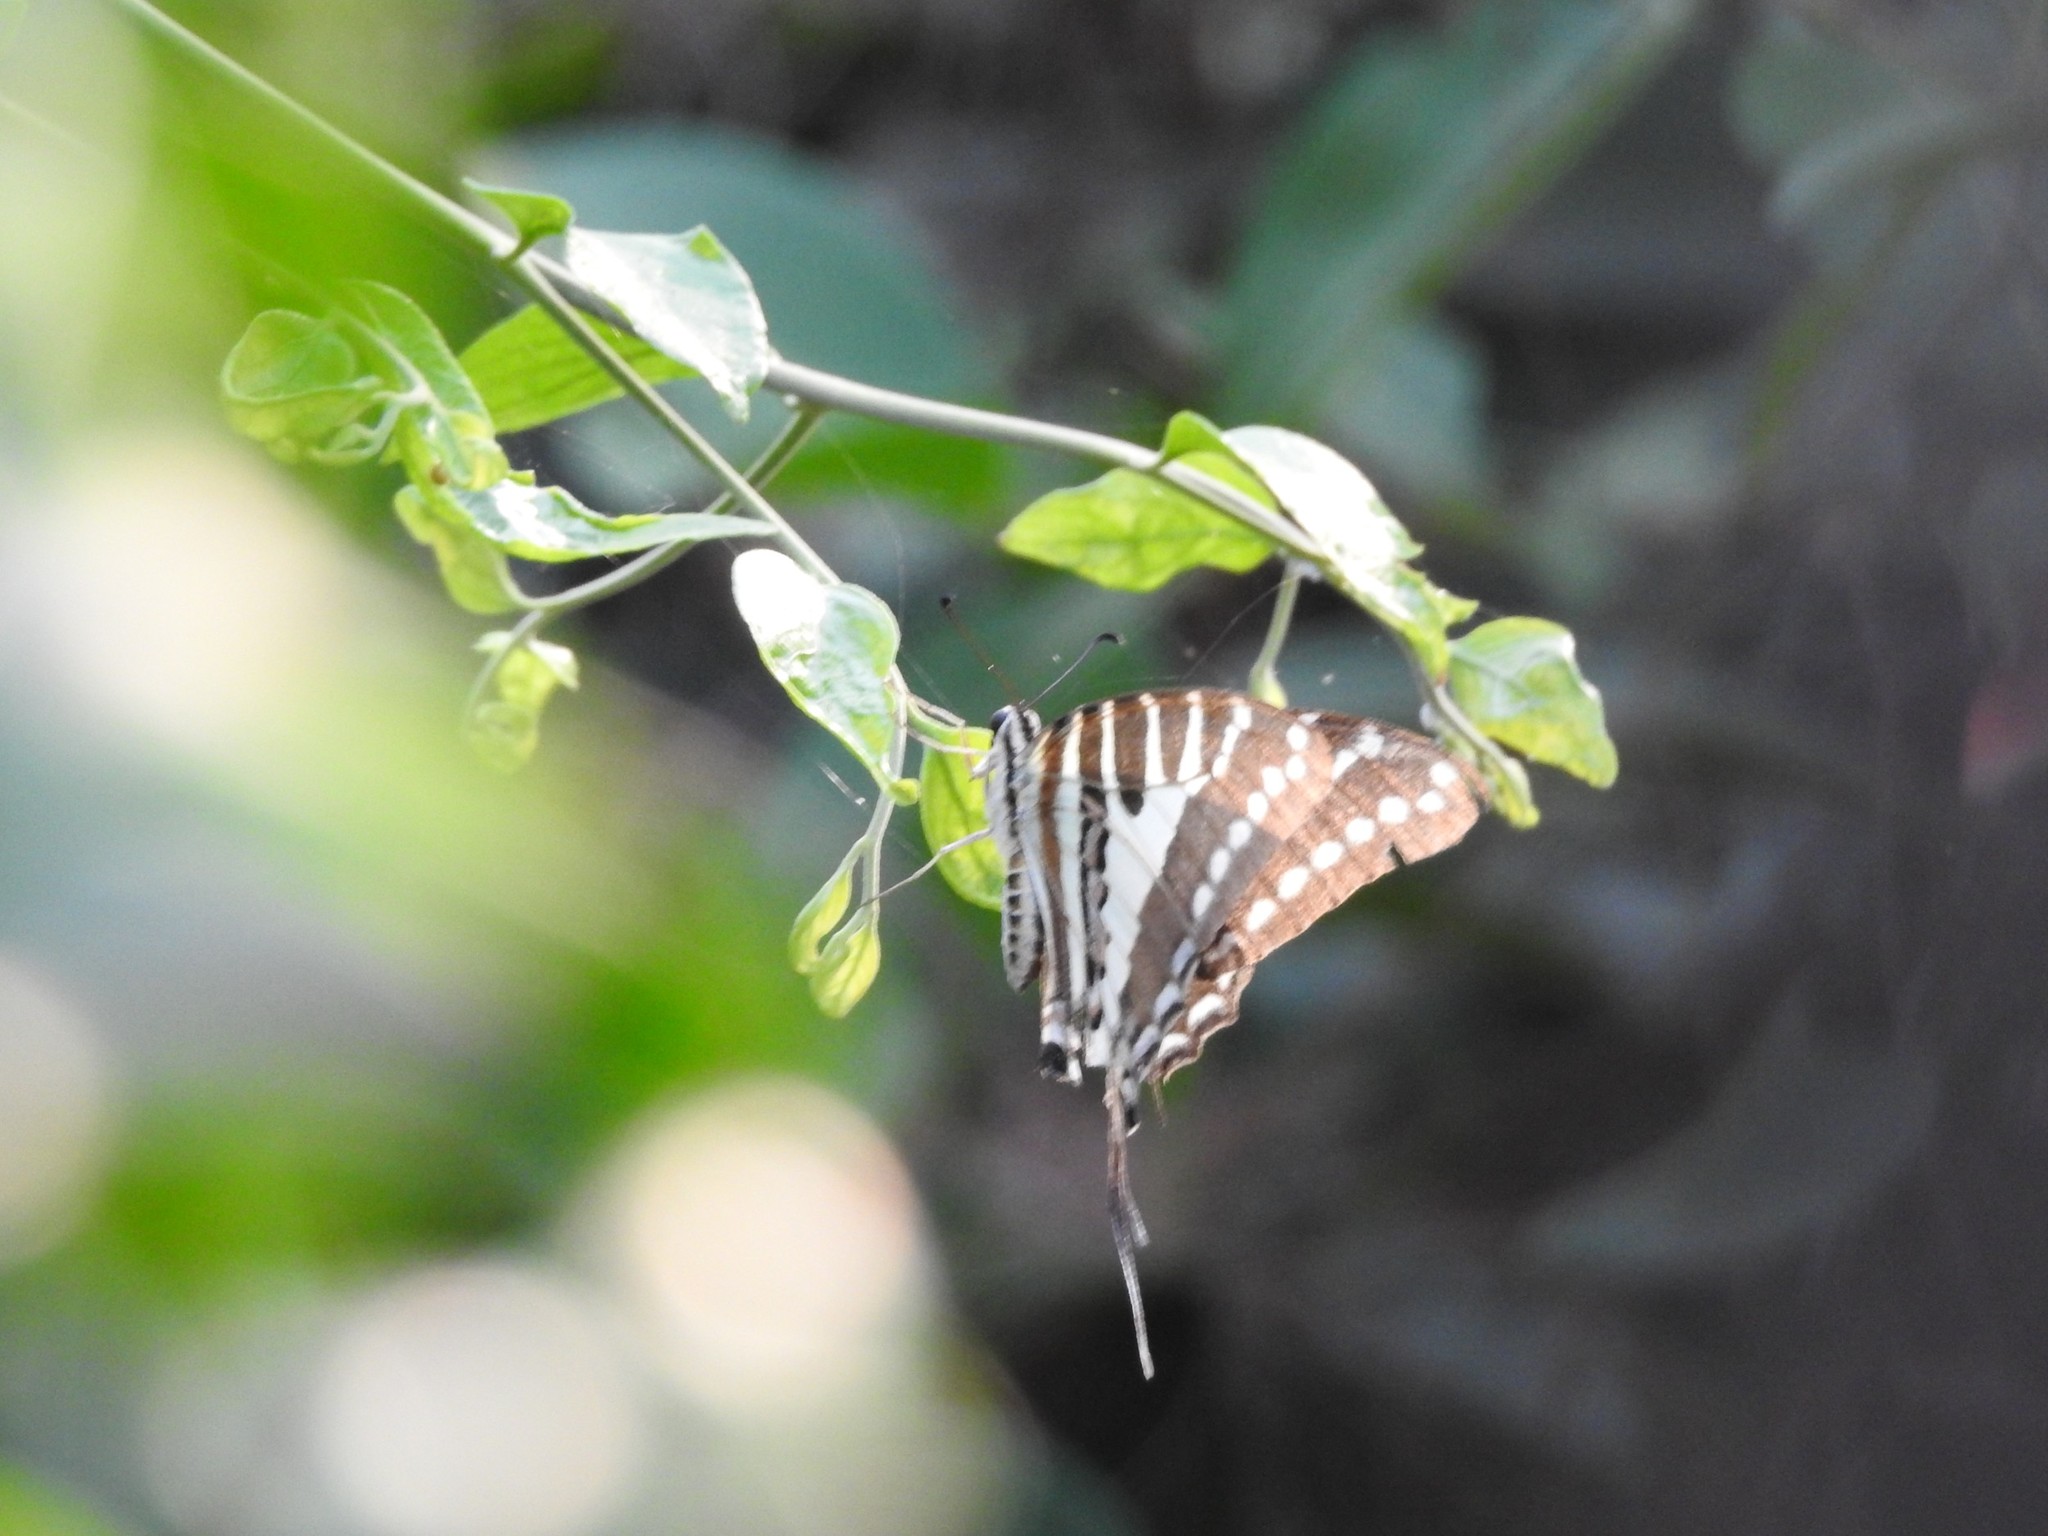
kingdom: Animalia
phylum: Arthropoda
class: Insecta
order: Lepidoptera
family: Papilionidae
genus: Graphium
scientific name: Graphium nomius
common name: Spot swordtail
